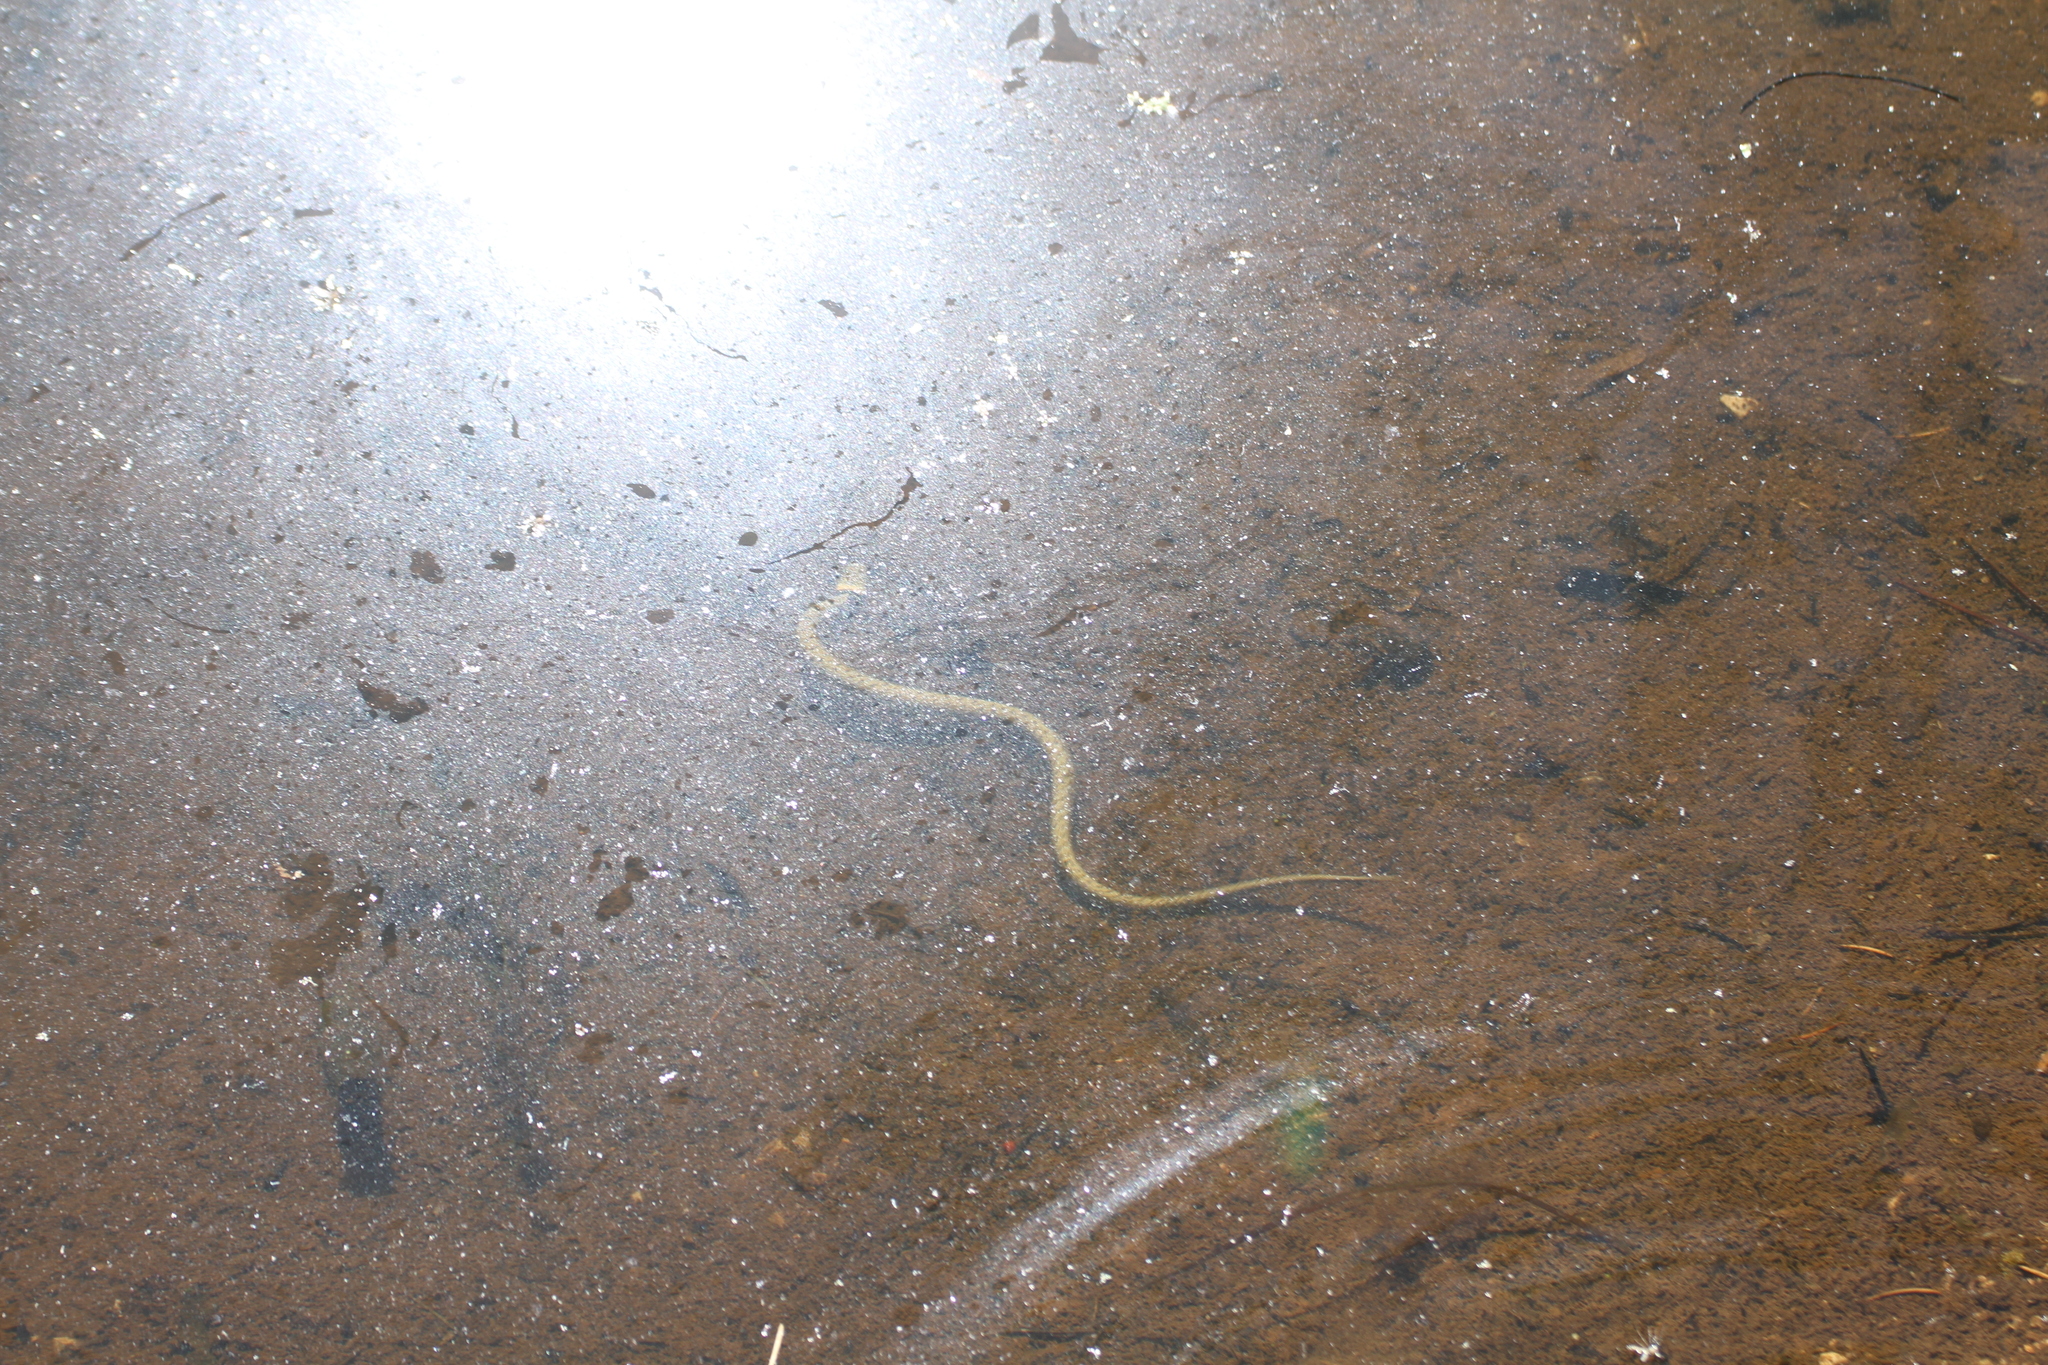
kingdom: Animalia
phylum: Chordata
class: Squamata
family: Colubridae
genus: Natrix
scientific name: Natrix helvetica
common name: Banded grass snake
